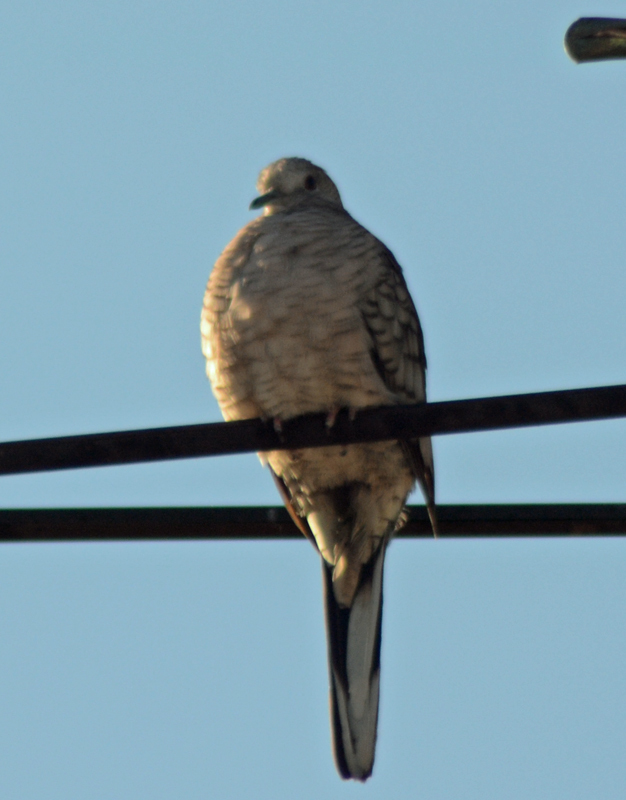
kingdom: Animalia
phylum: Chordata
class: Aves
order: Columbiformes
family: Columbidae
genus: Columbina
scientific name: Columbina inca
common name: Inca dove
